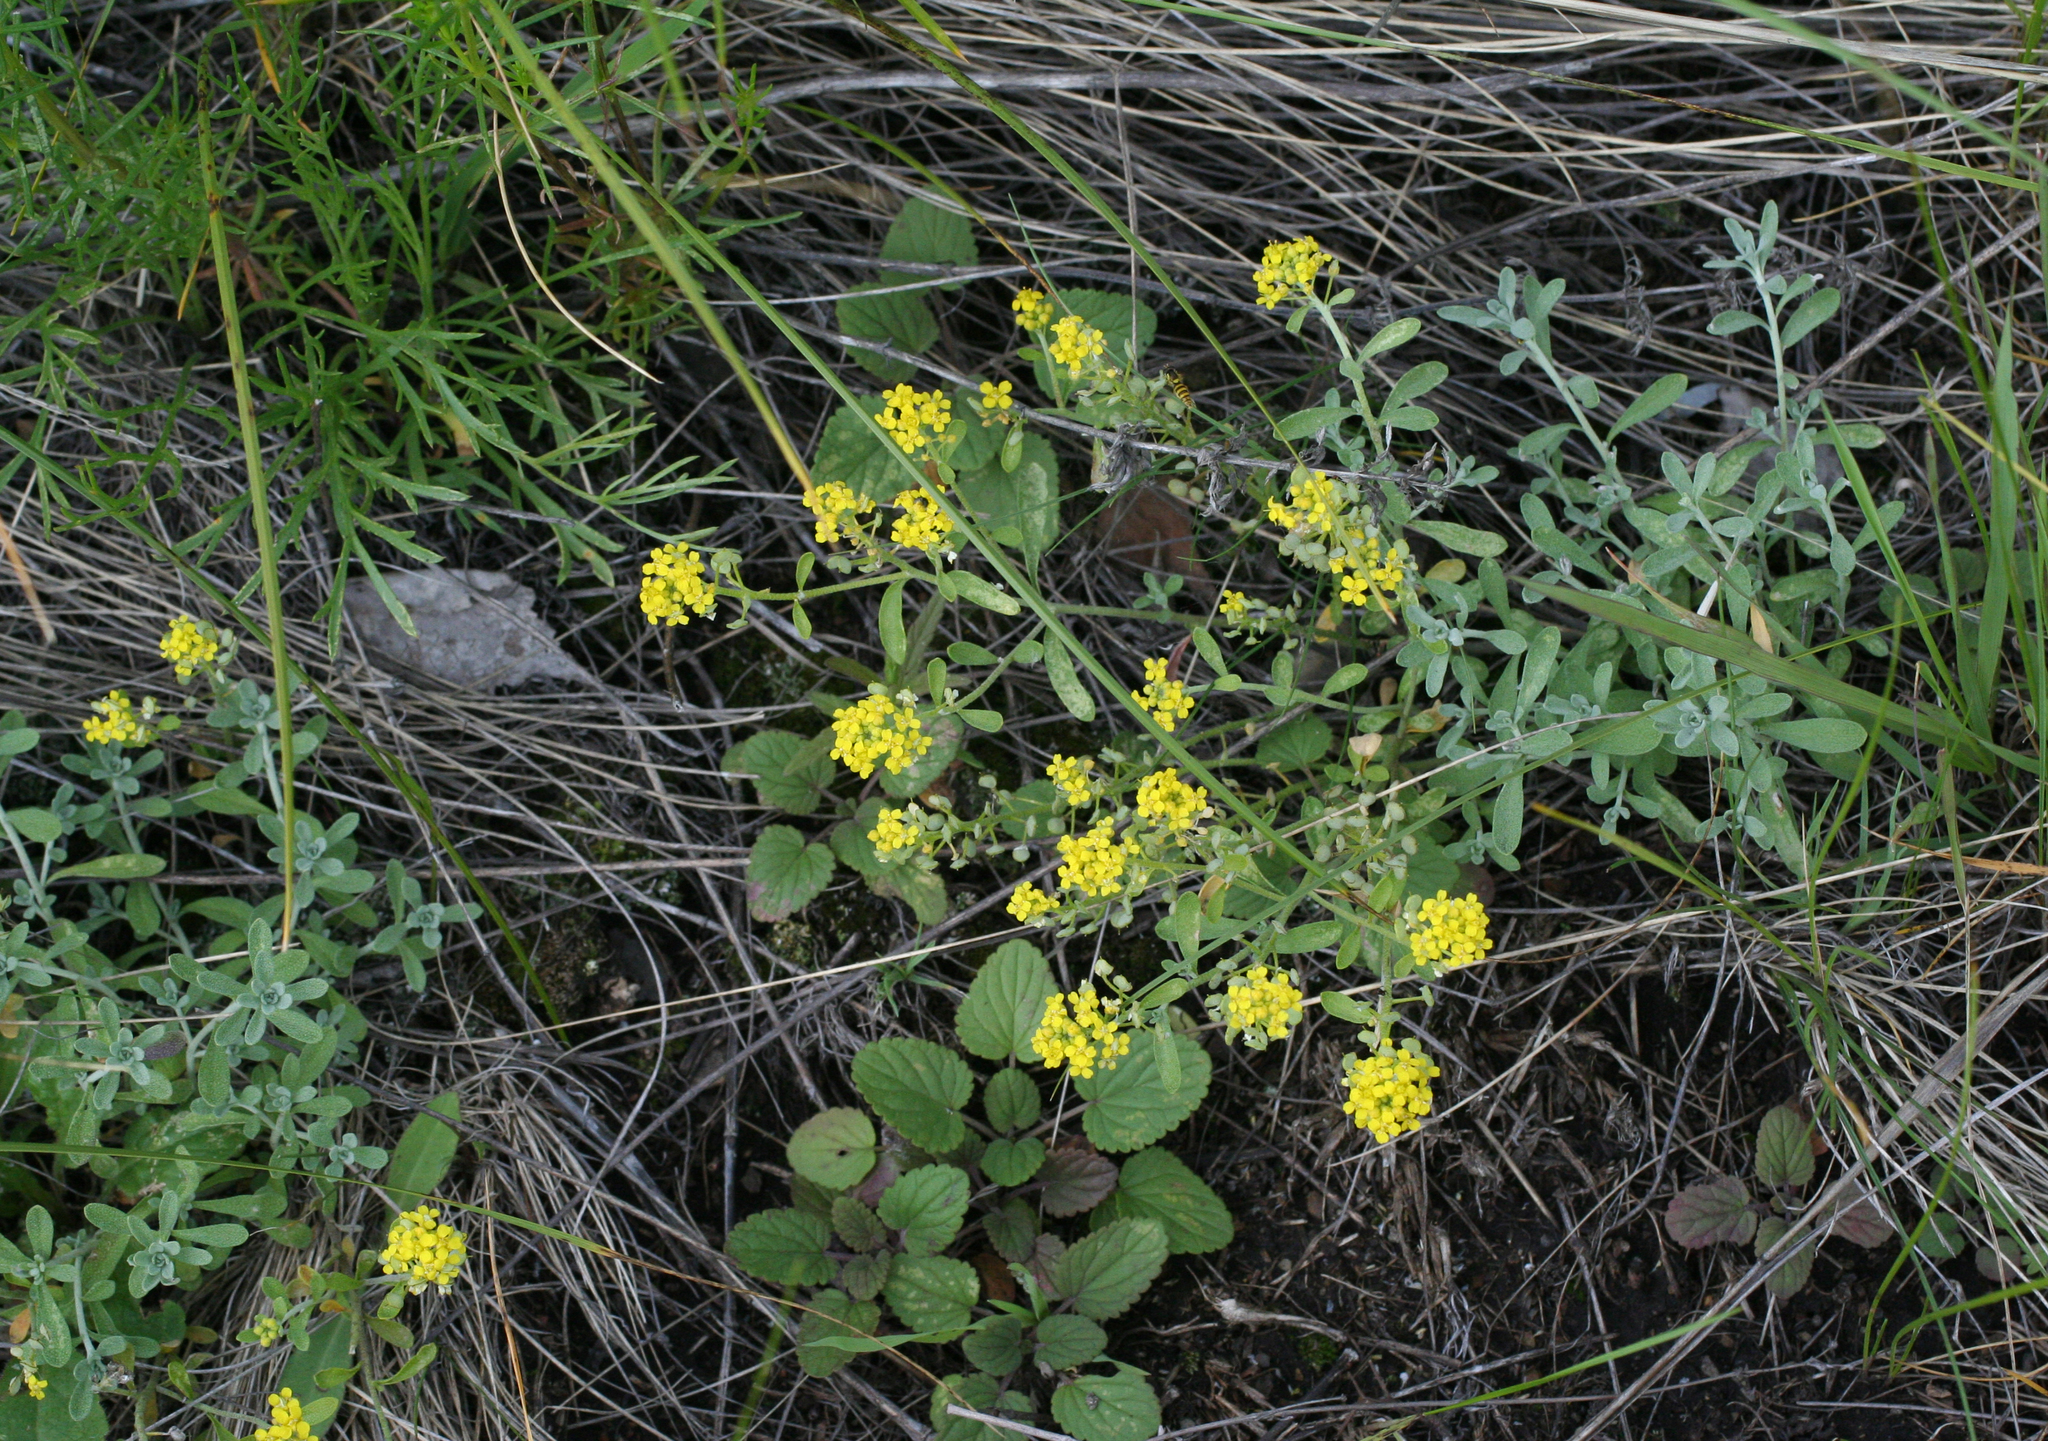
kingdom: Plantae
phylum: Tracheophyta
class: Magnoliopsida
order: Brassicales
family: Brassicaceae
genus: Odontarrhena
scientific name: Odontarrhena obovata
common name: American alyssum
